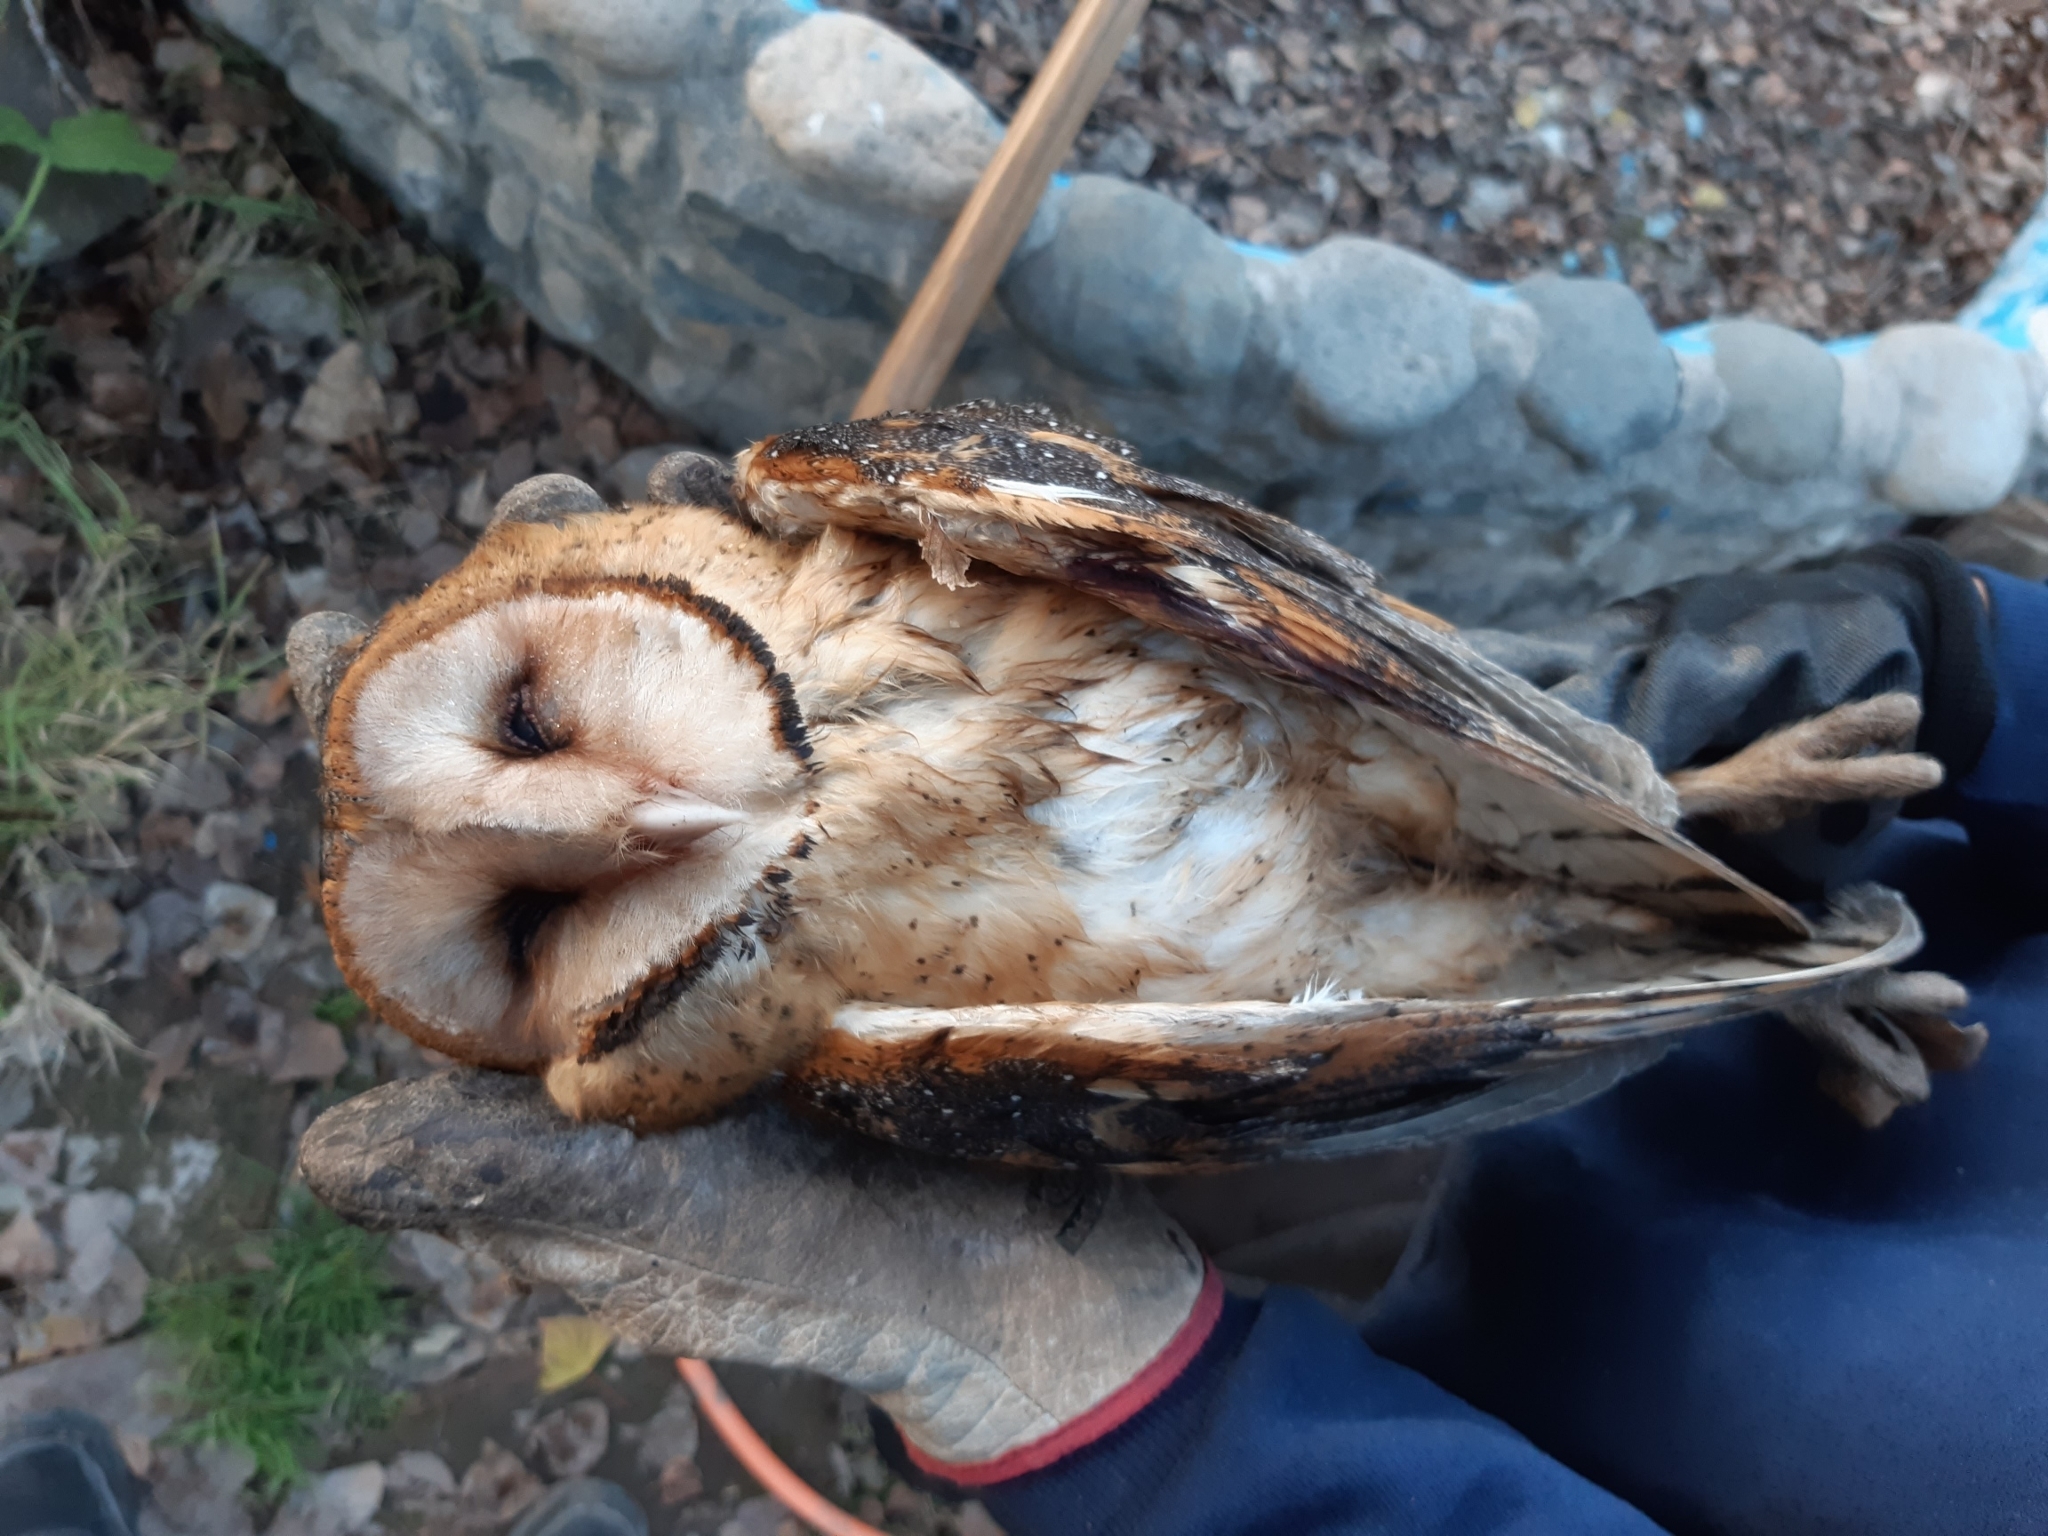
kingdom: Animalia
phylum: Chordata
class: Aves
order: Strigiformes
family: Tytonidae
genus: Tyto
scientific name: Tyto furcata
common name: American barn owl
